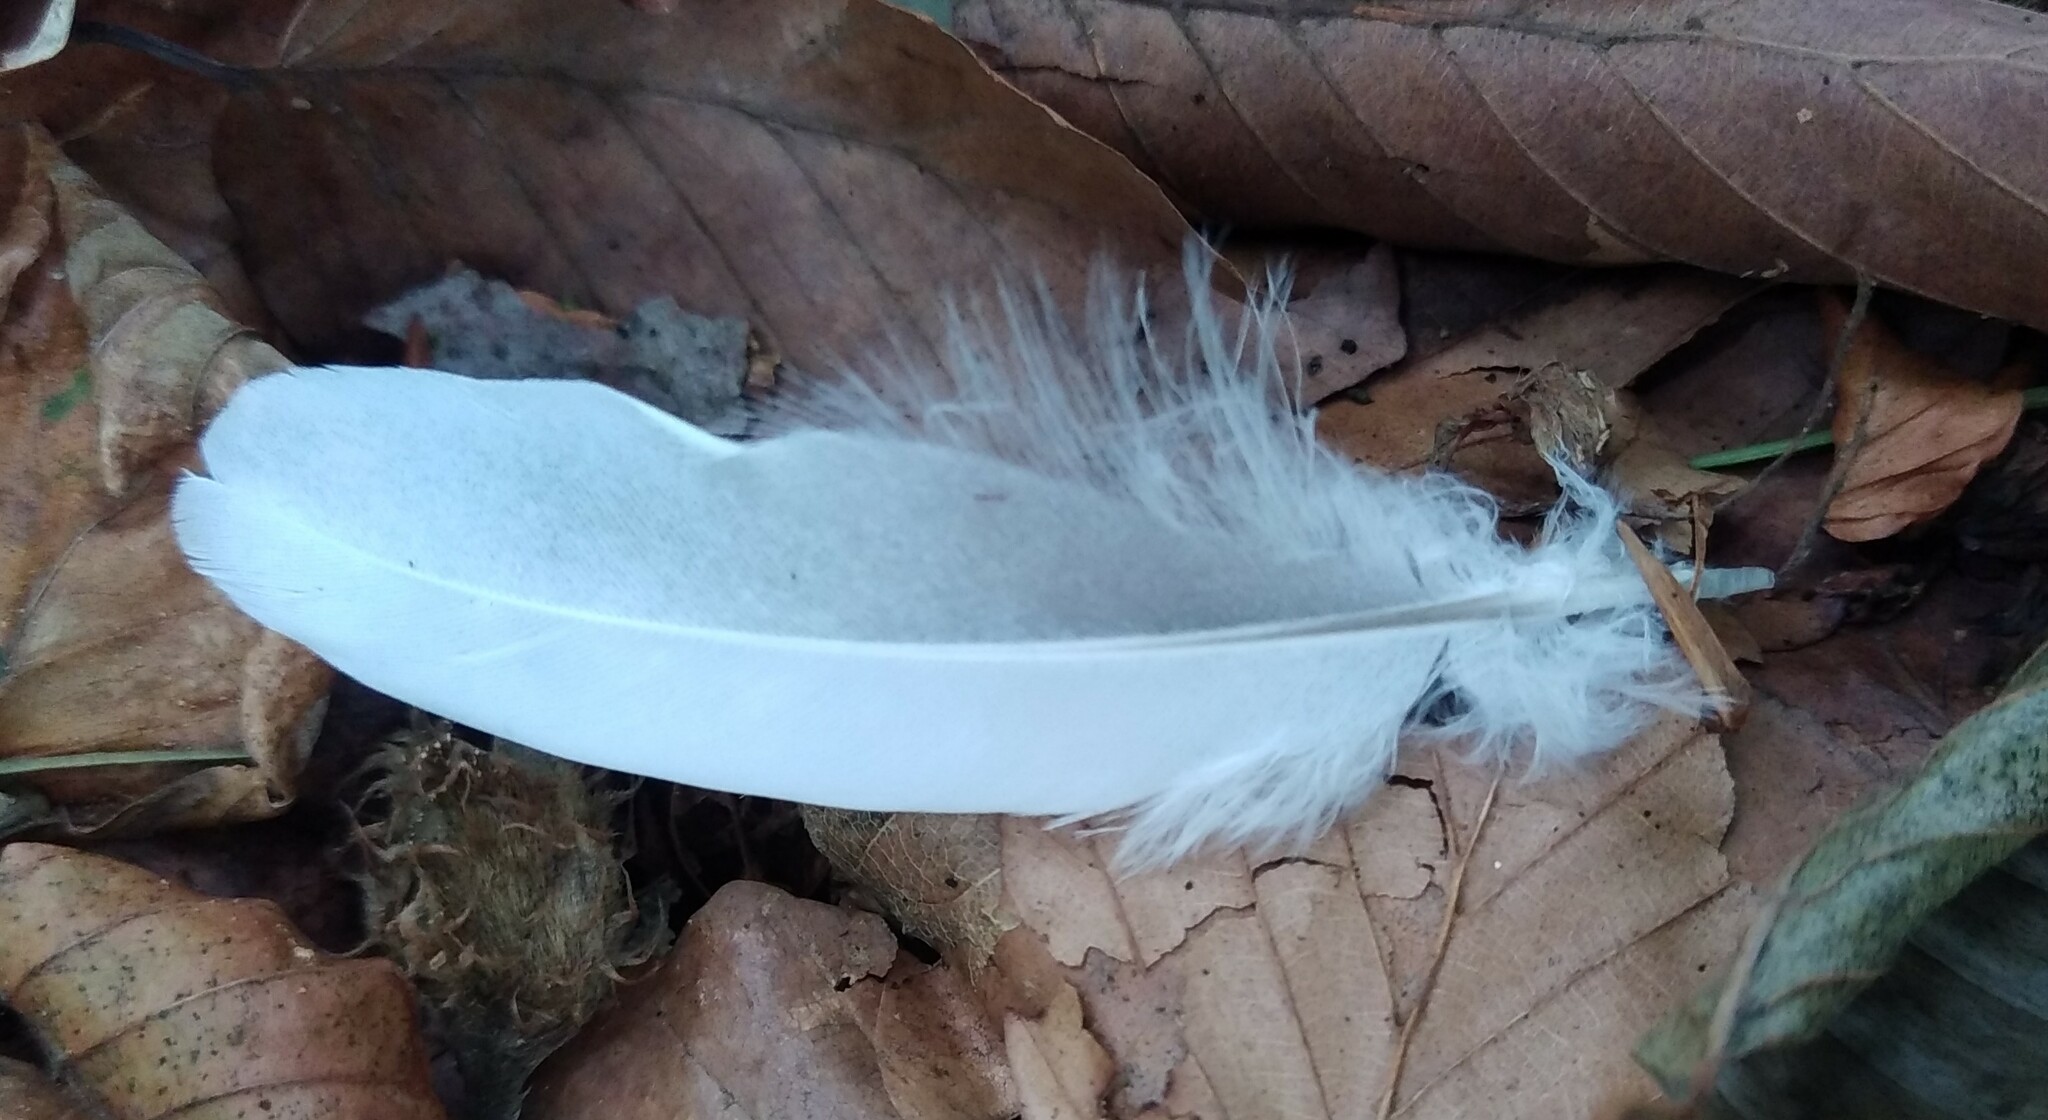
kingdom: Animalia
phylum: Chordata
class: Aves
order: Columbiformes
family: Columbidae
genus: Columba
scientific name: Columba palumbus
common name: Common wood pigeon
